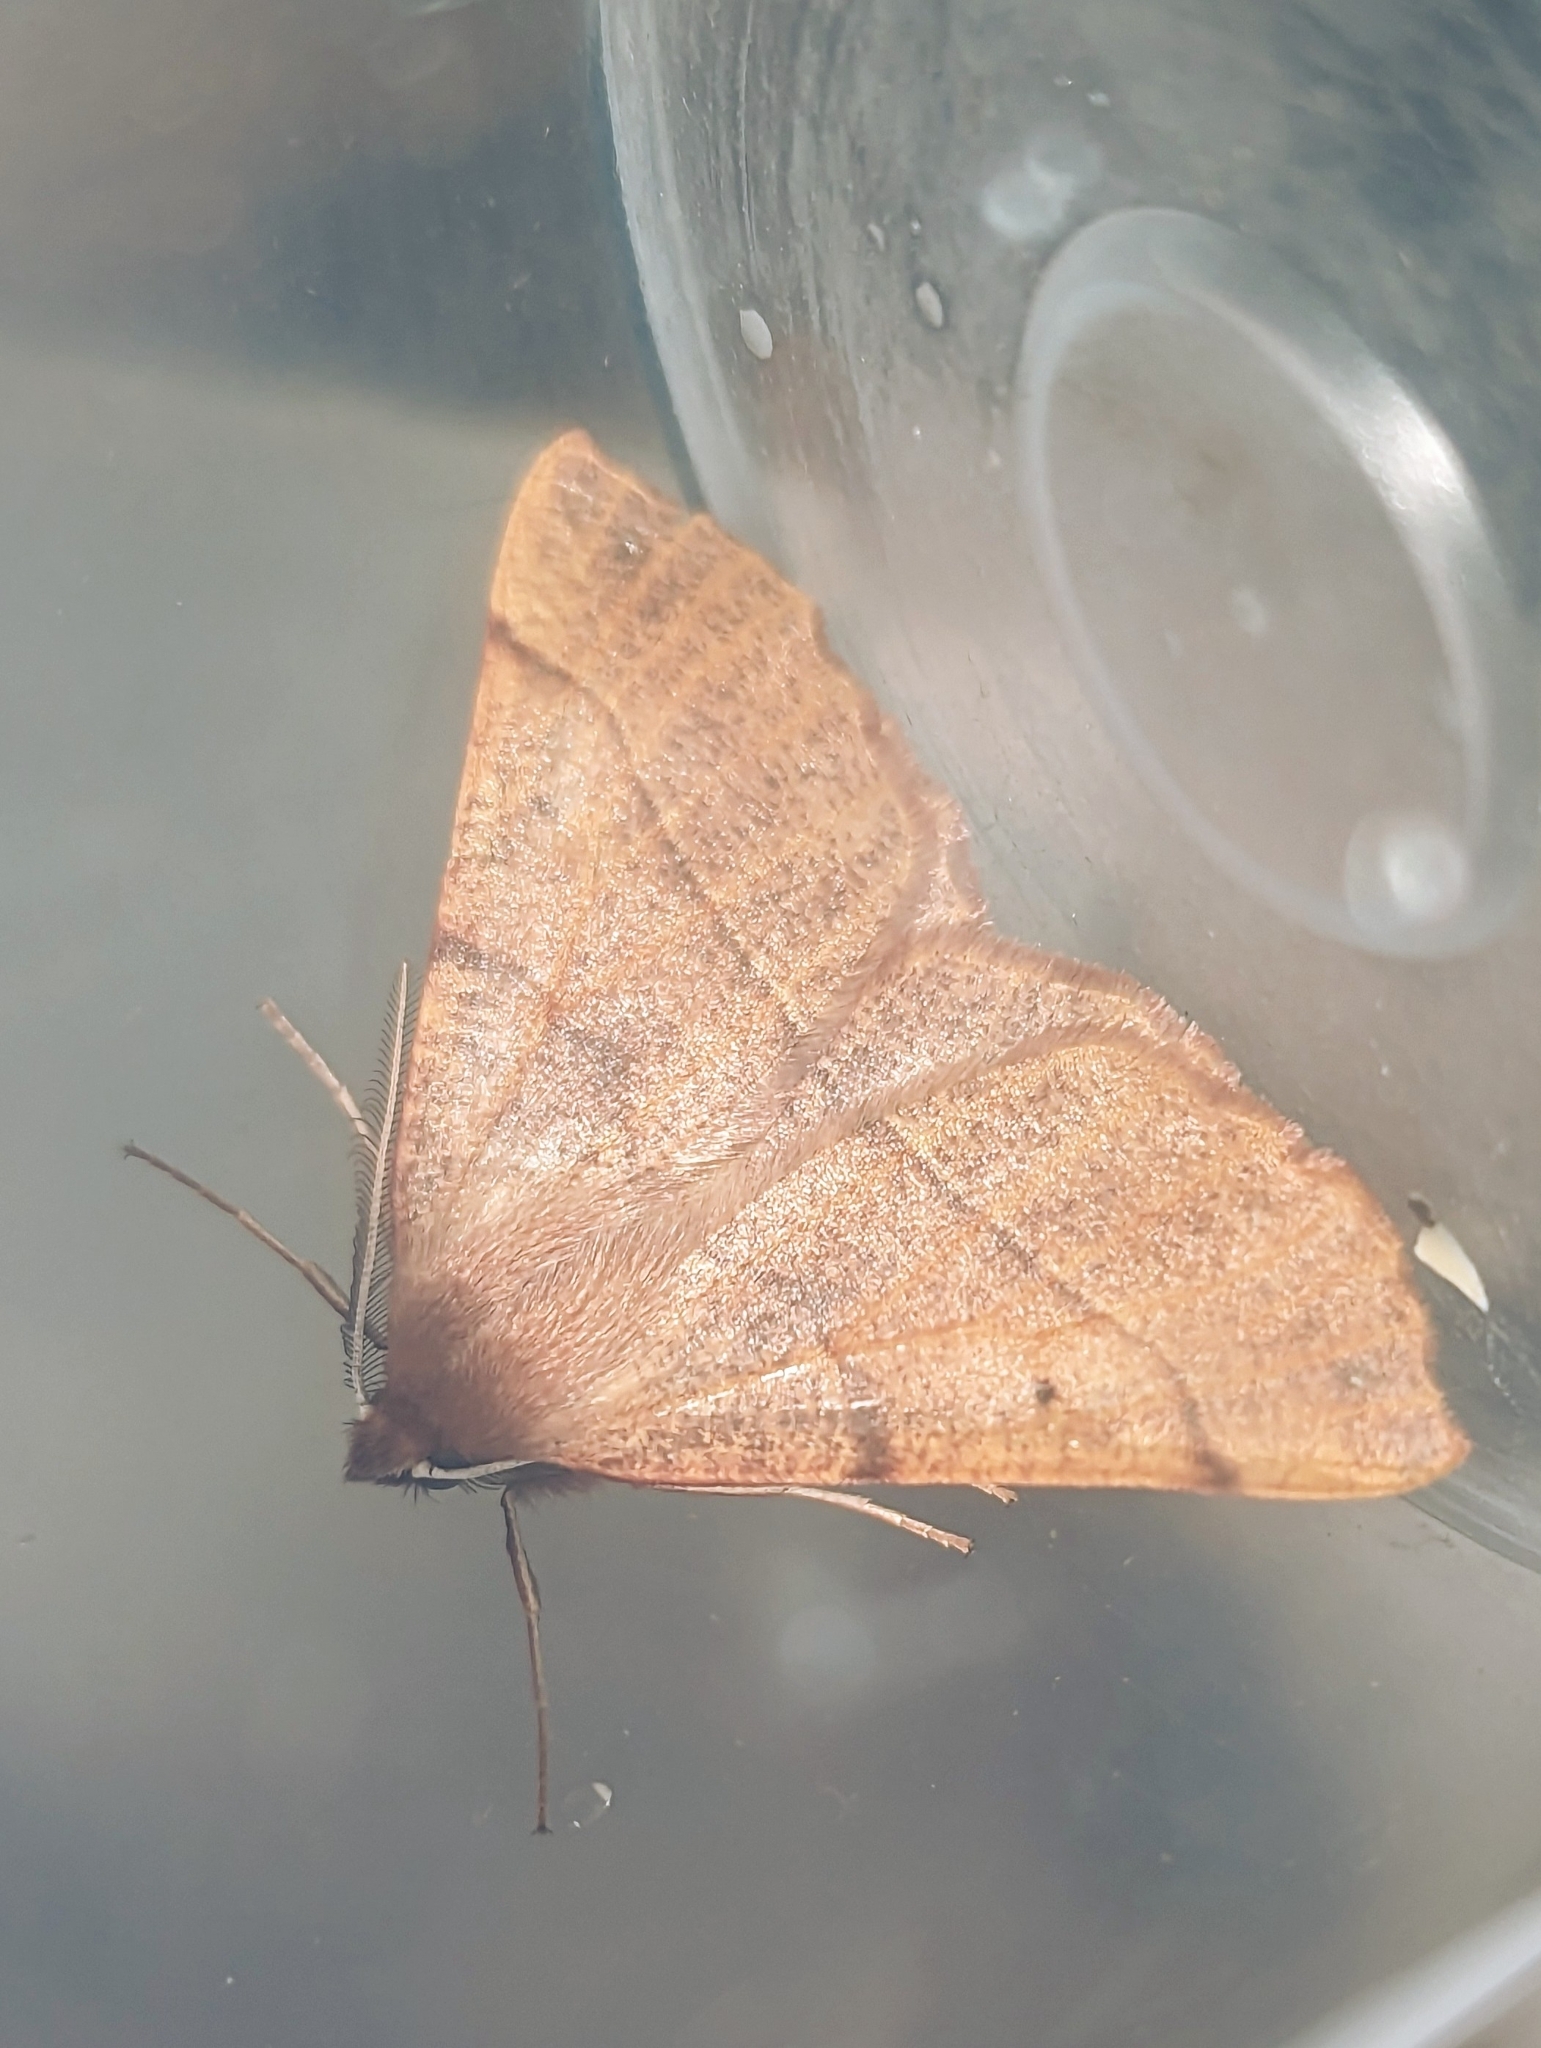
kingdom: Animalia
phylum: Arthropoda
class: Insecta
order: Lepidoptera
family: Geometridae
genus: Colotois
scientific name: Colotois pennaria
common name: Feathered thorn
